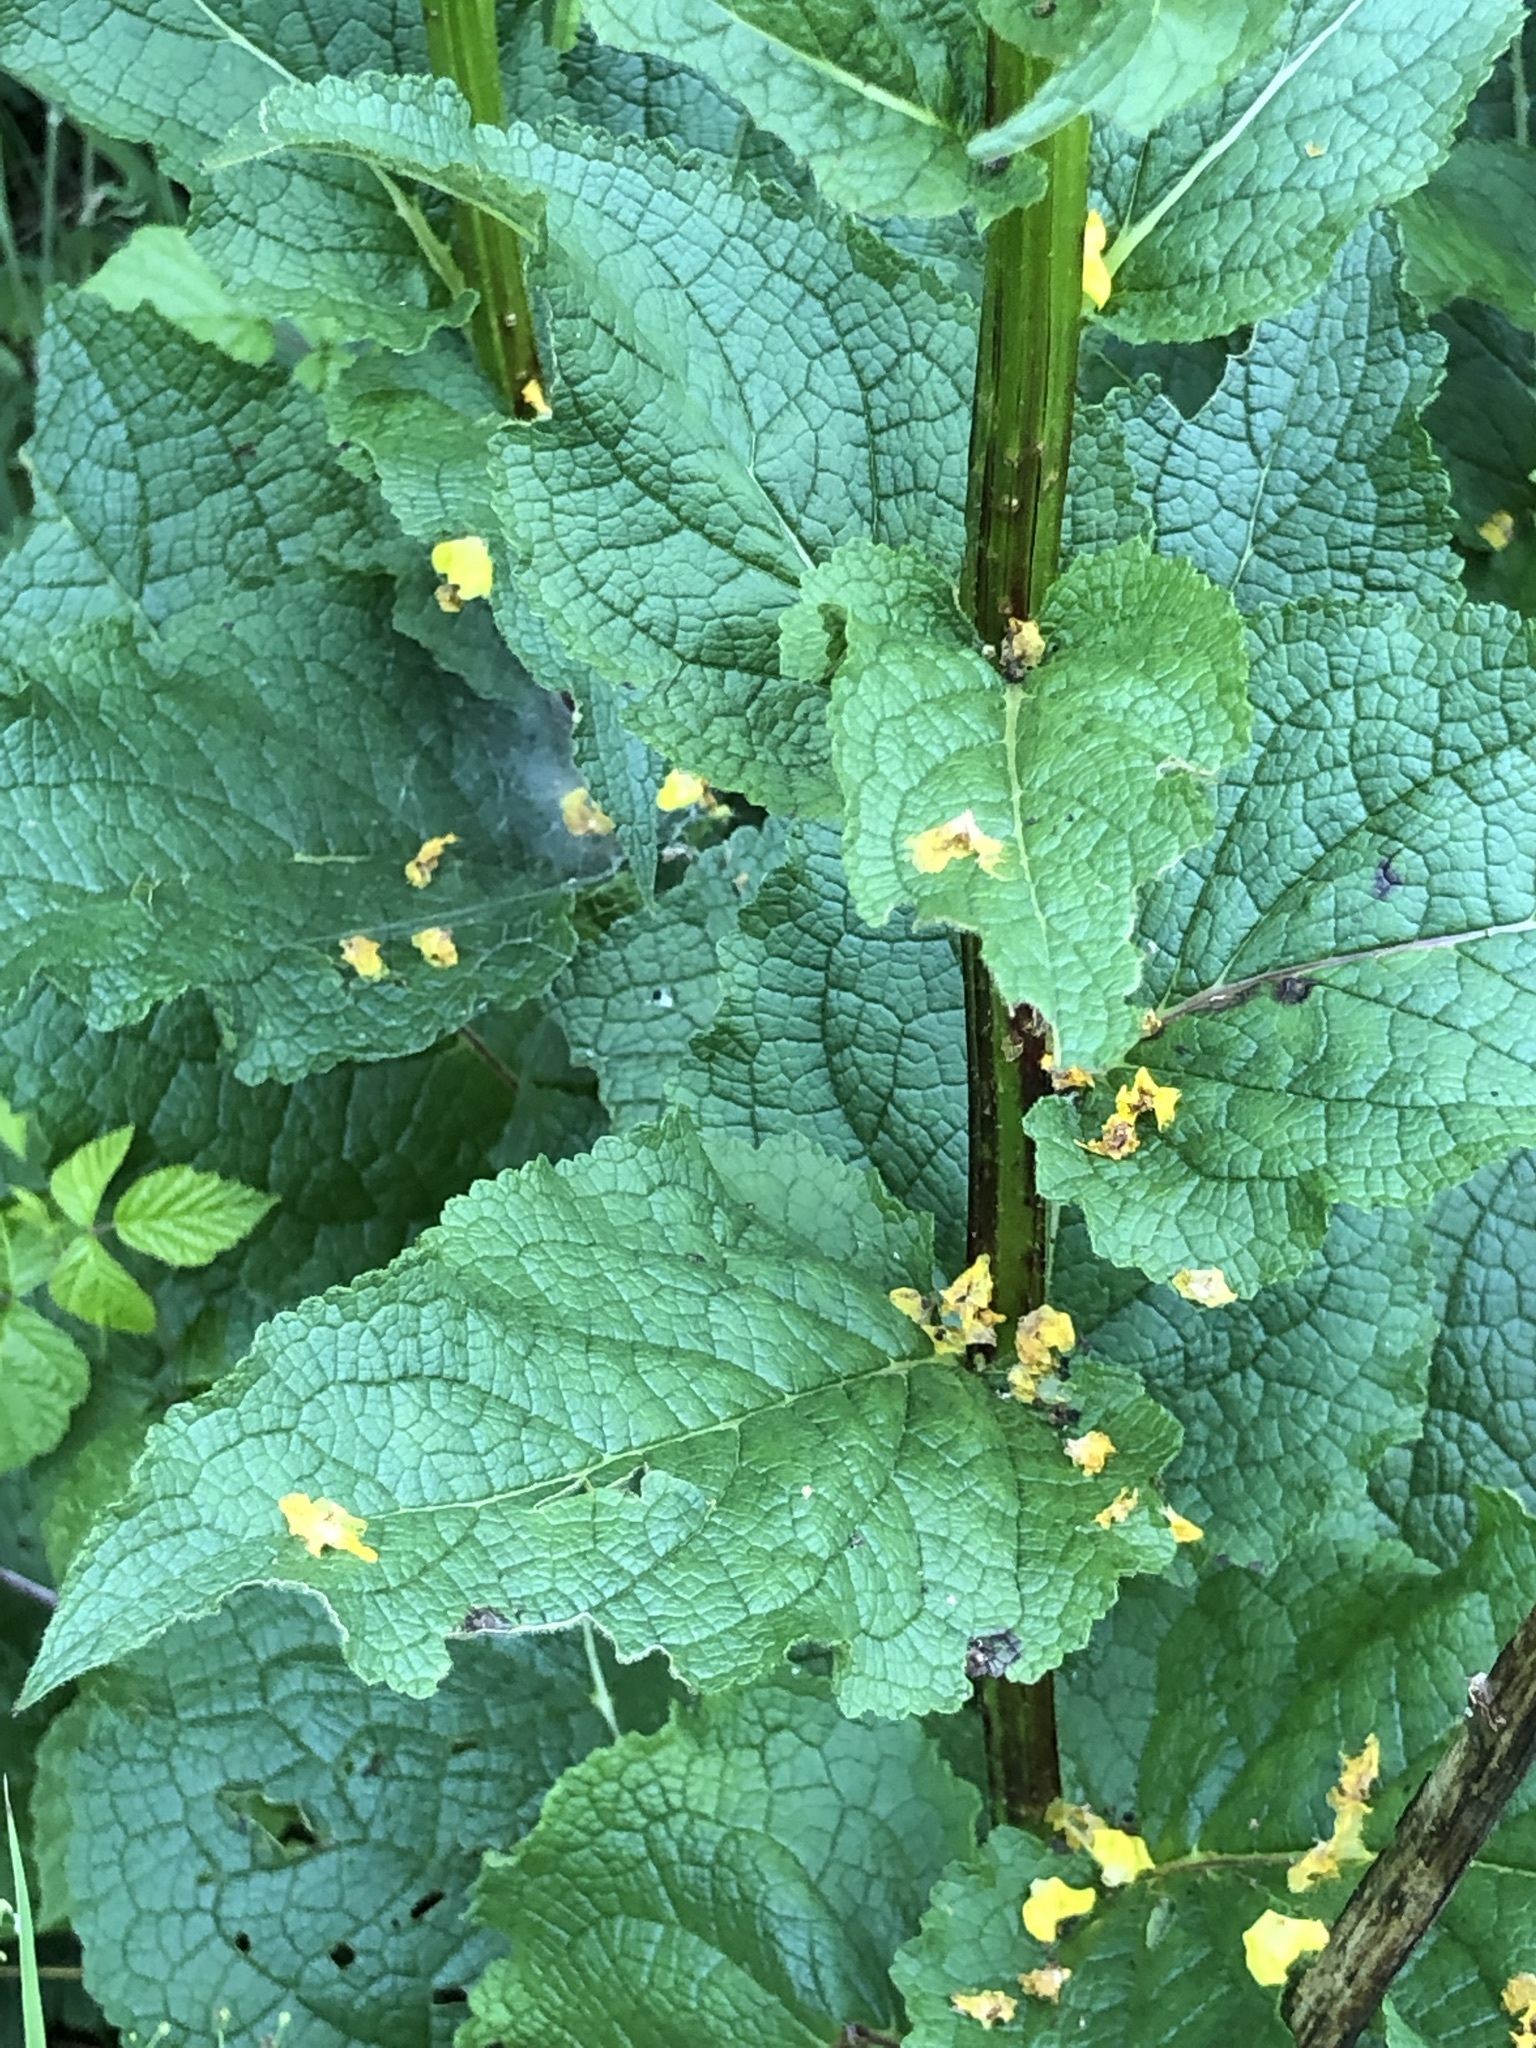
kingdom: Plantae
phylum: Tracheophyta
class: Magnoliopsida
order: Lamiales
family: Scrophulariaceae
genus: Verbascum
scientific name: Verbascum nigrum
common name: Dark mullein
